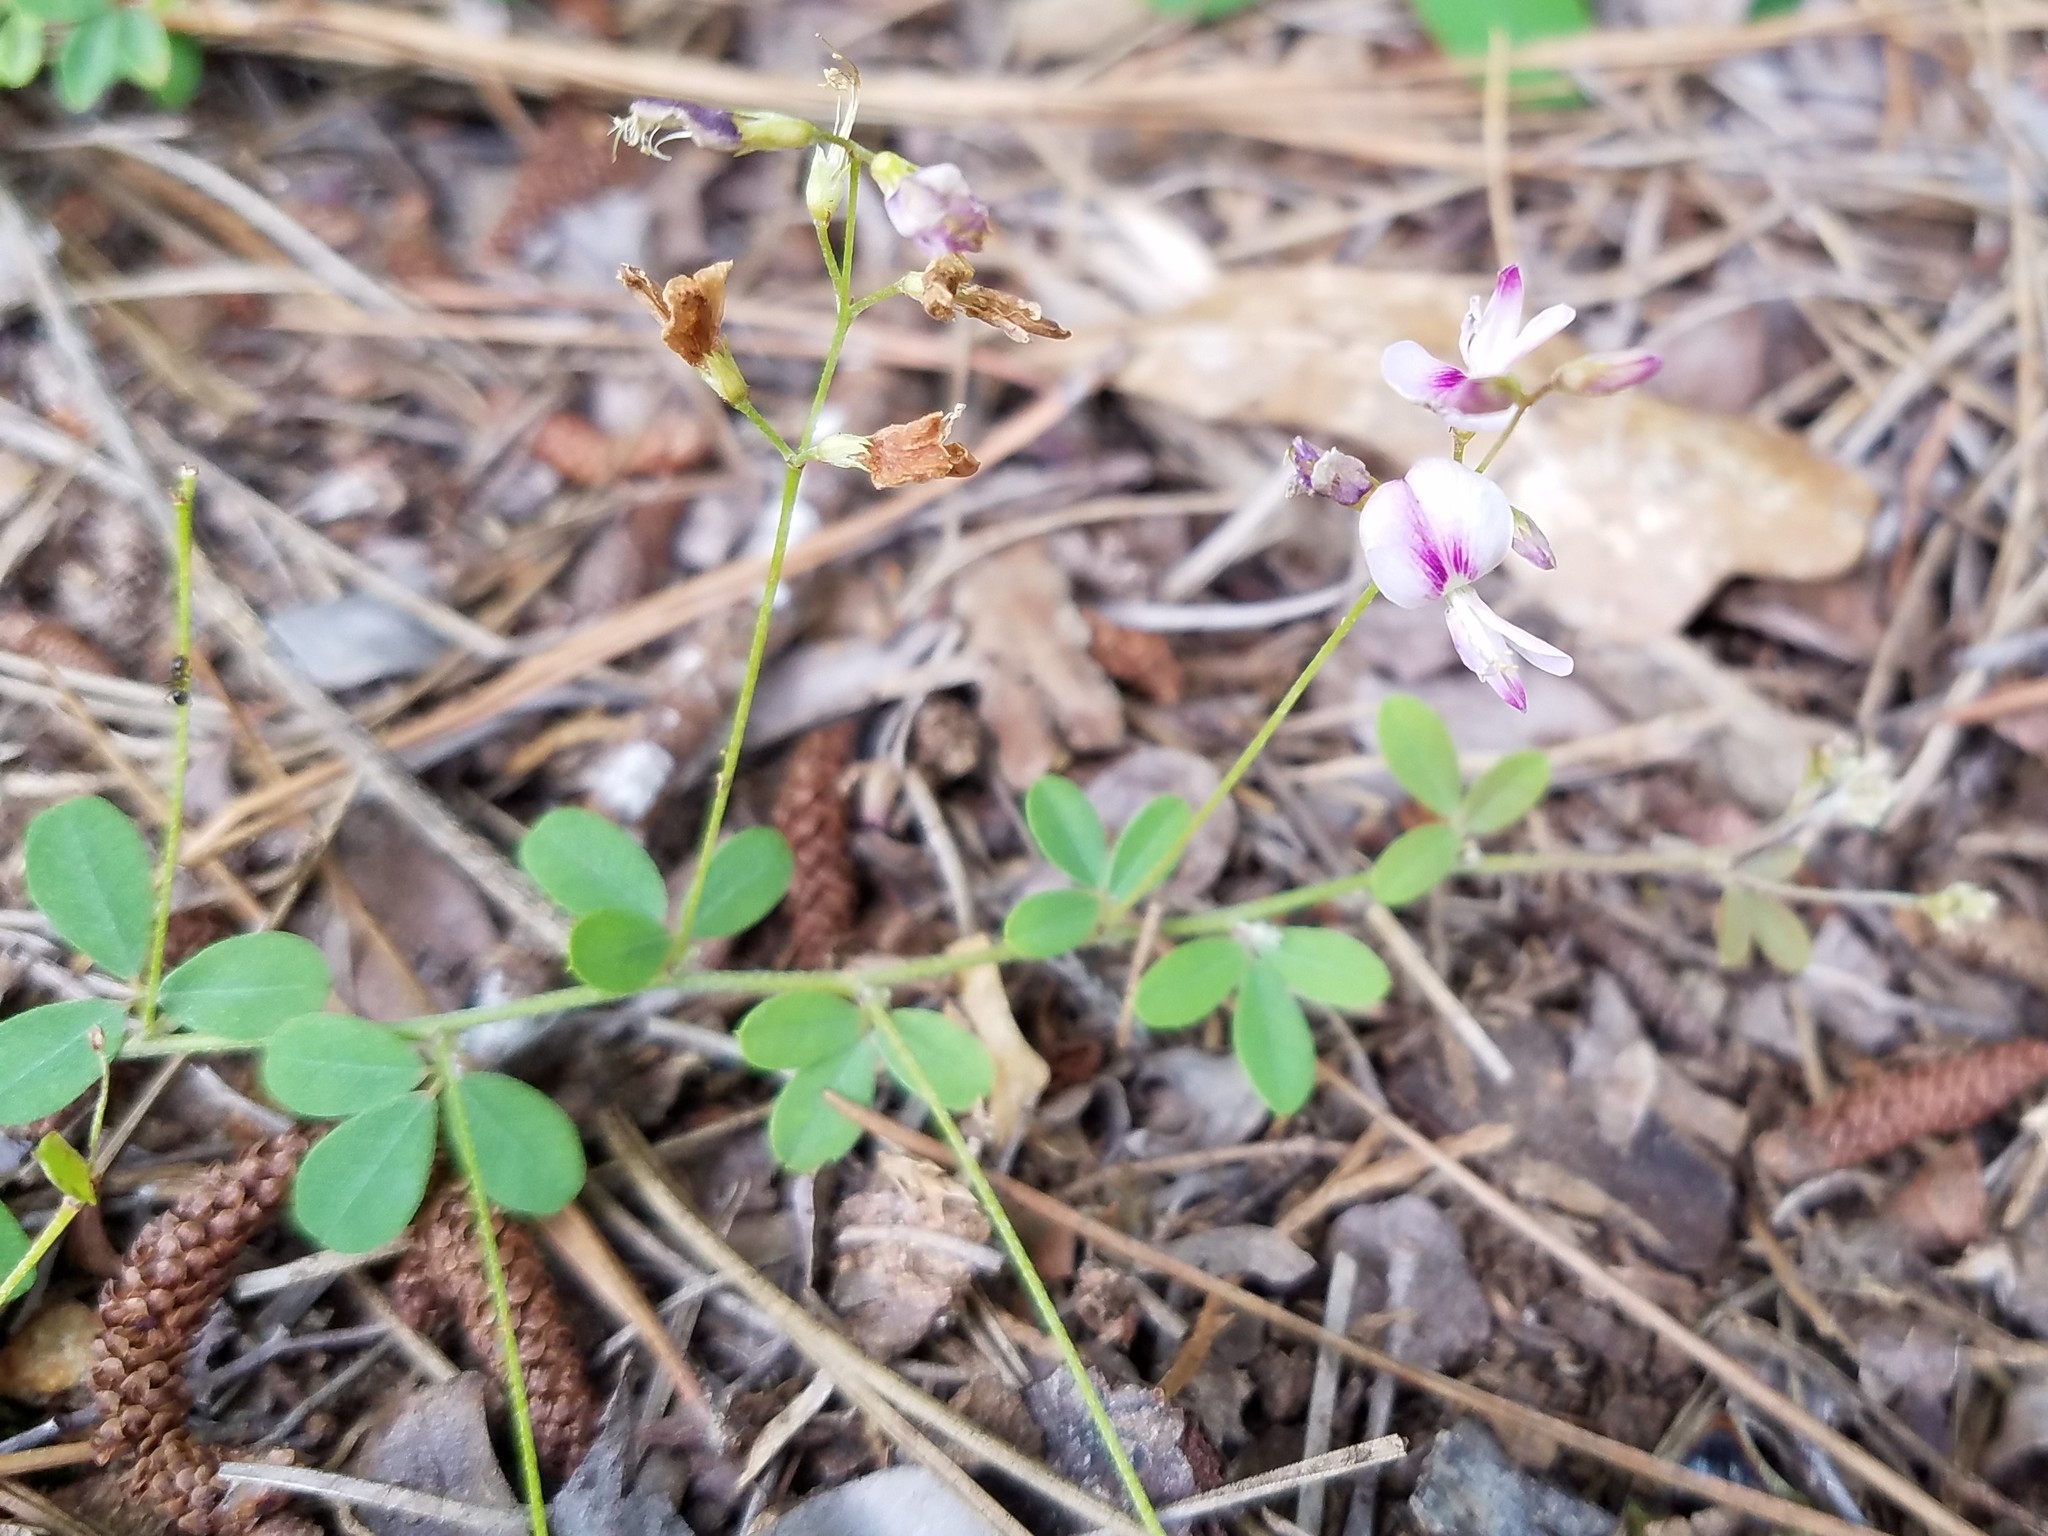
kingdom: Plantae
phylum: Tracheophyta
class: Magnoliopsida
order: Fabales
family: Fabaceae
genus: Lespedeza
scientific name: Lespedeza repens
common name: Creeping bush-clover
